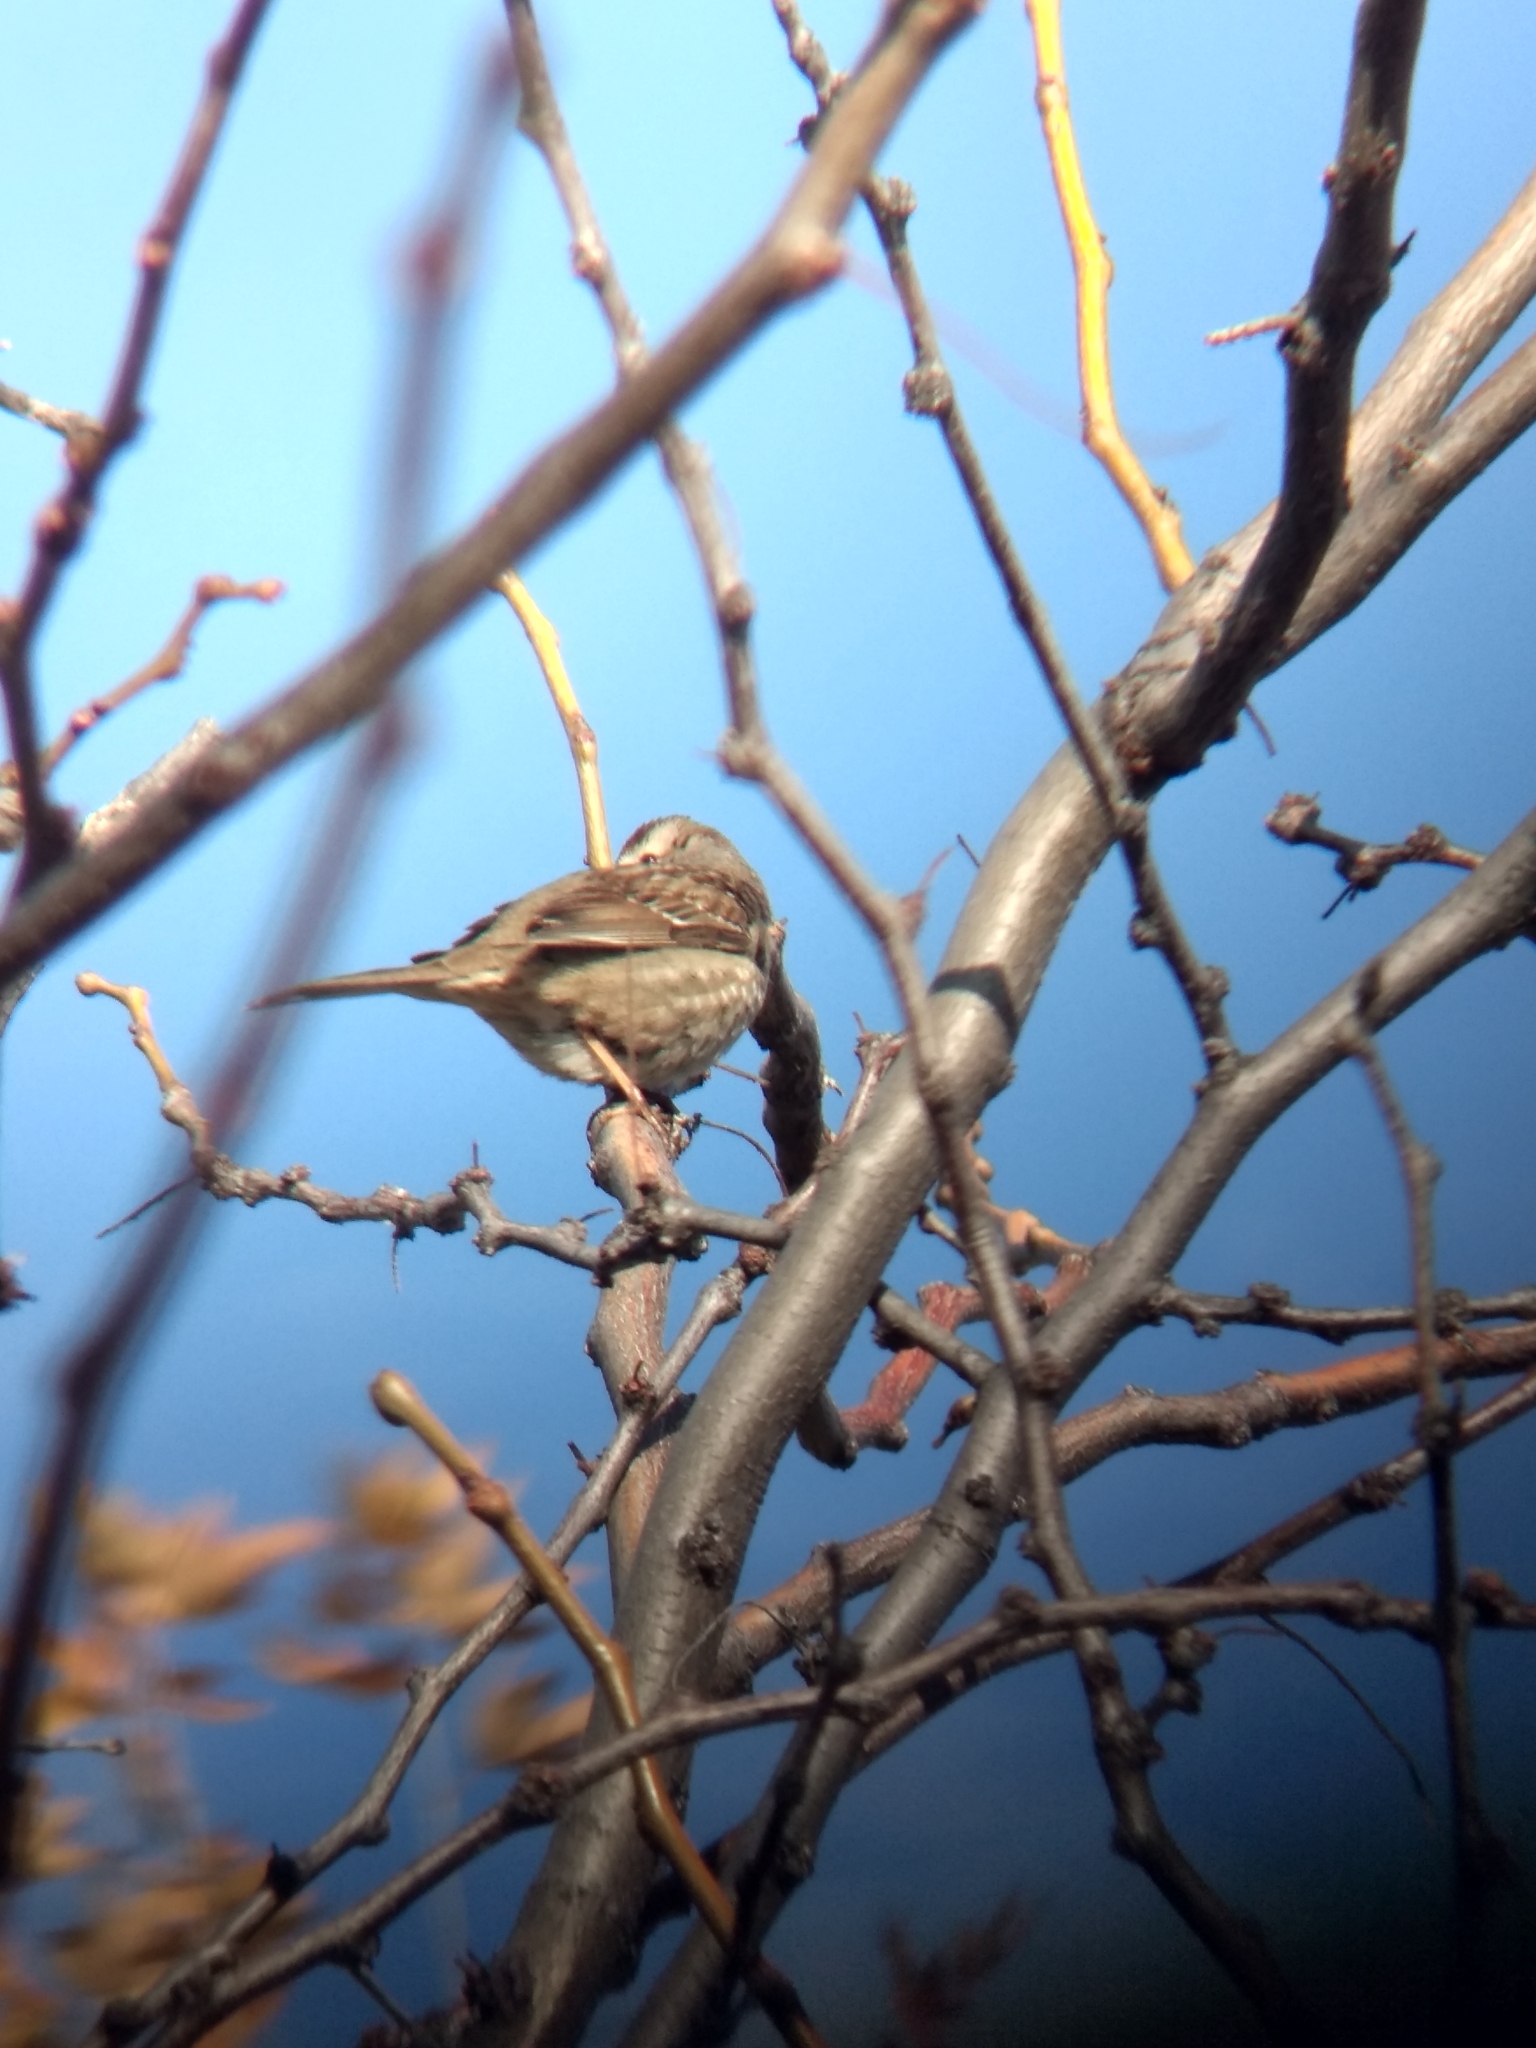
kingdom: Animalia
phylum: Chordata
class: Aves
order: Passeriformes
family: Passerellidae
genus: Zonotrichia
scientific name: Zonotrichia leucophrys
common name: White-crowned sparrow
